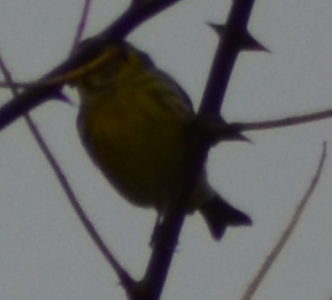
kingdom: Animalia
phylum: Chordata
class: Aves
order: Passeriformes
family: Fringillidae
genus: Serinus
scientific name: Serinus serinus
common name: European serin
